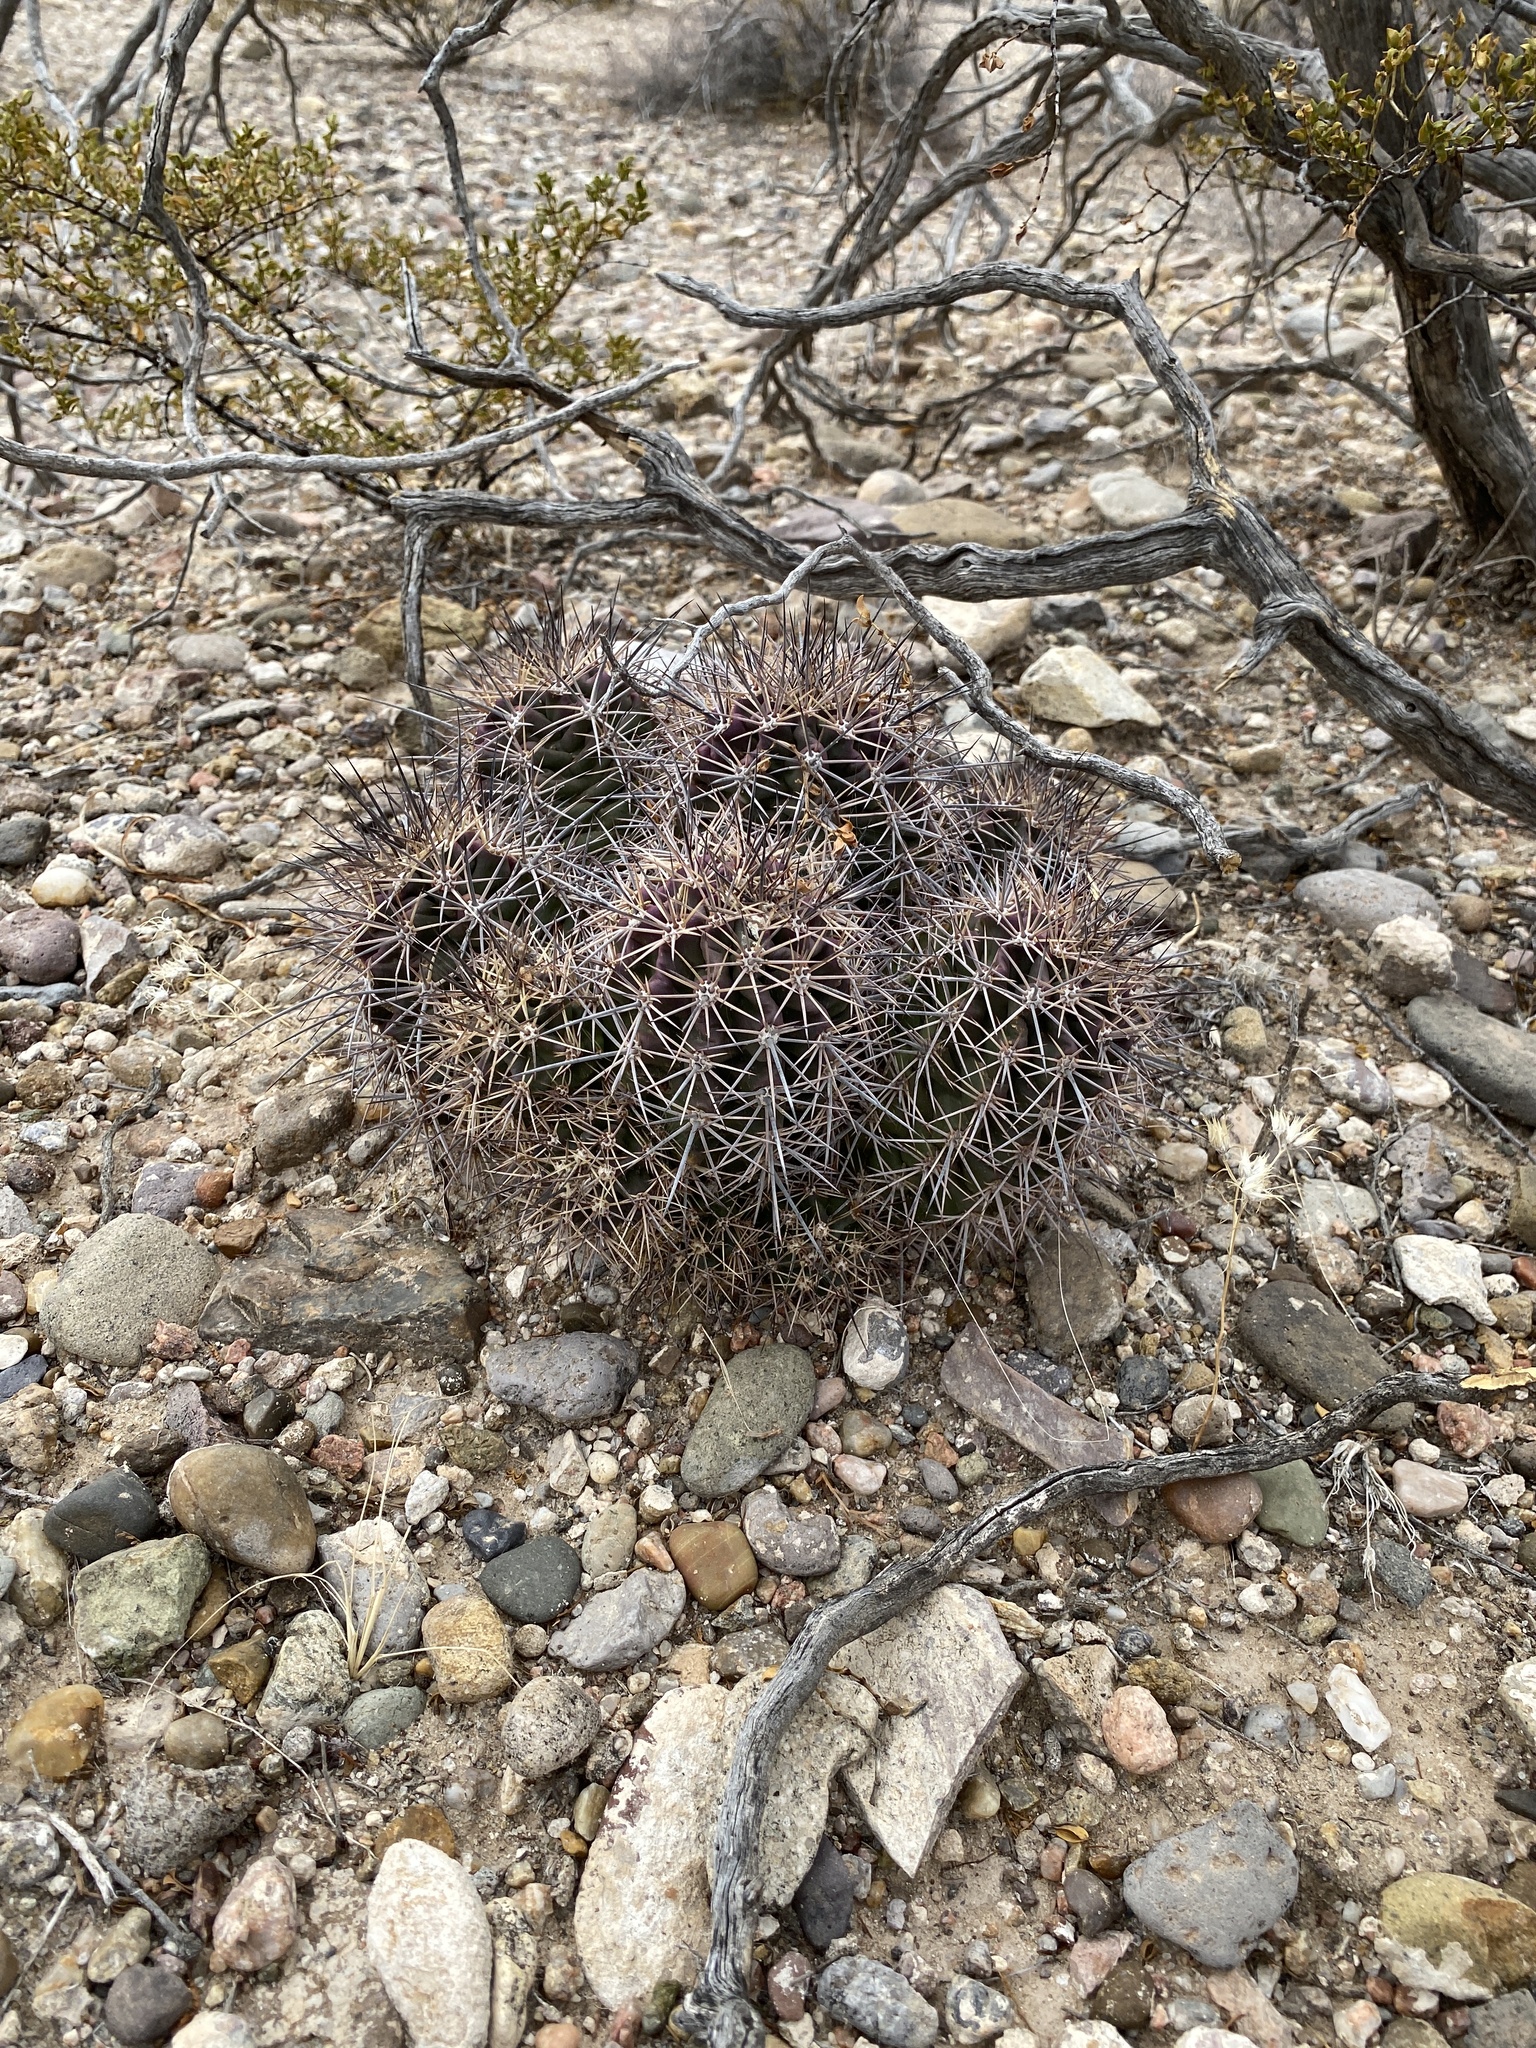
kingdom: Plantae
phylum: Tracheophyta
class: Magnoliopsida
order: Caryophyllales
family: Cactaceae
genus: Echinocereus
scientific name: Echinocereus coccineus
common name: Scarlet hedgehog cactus
